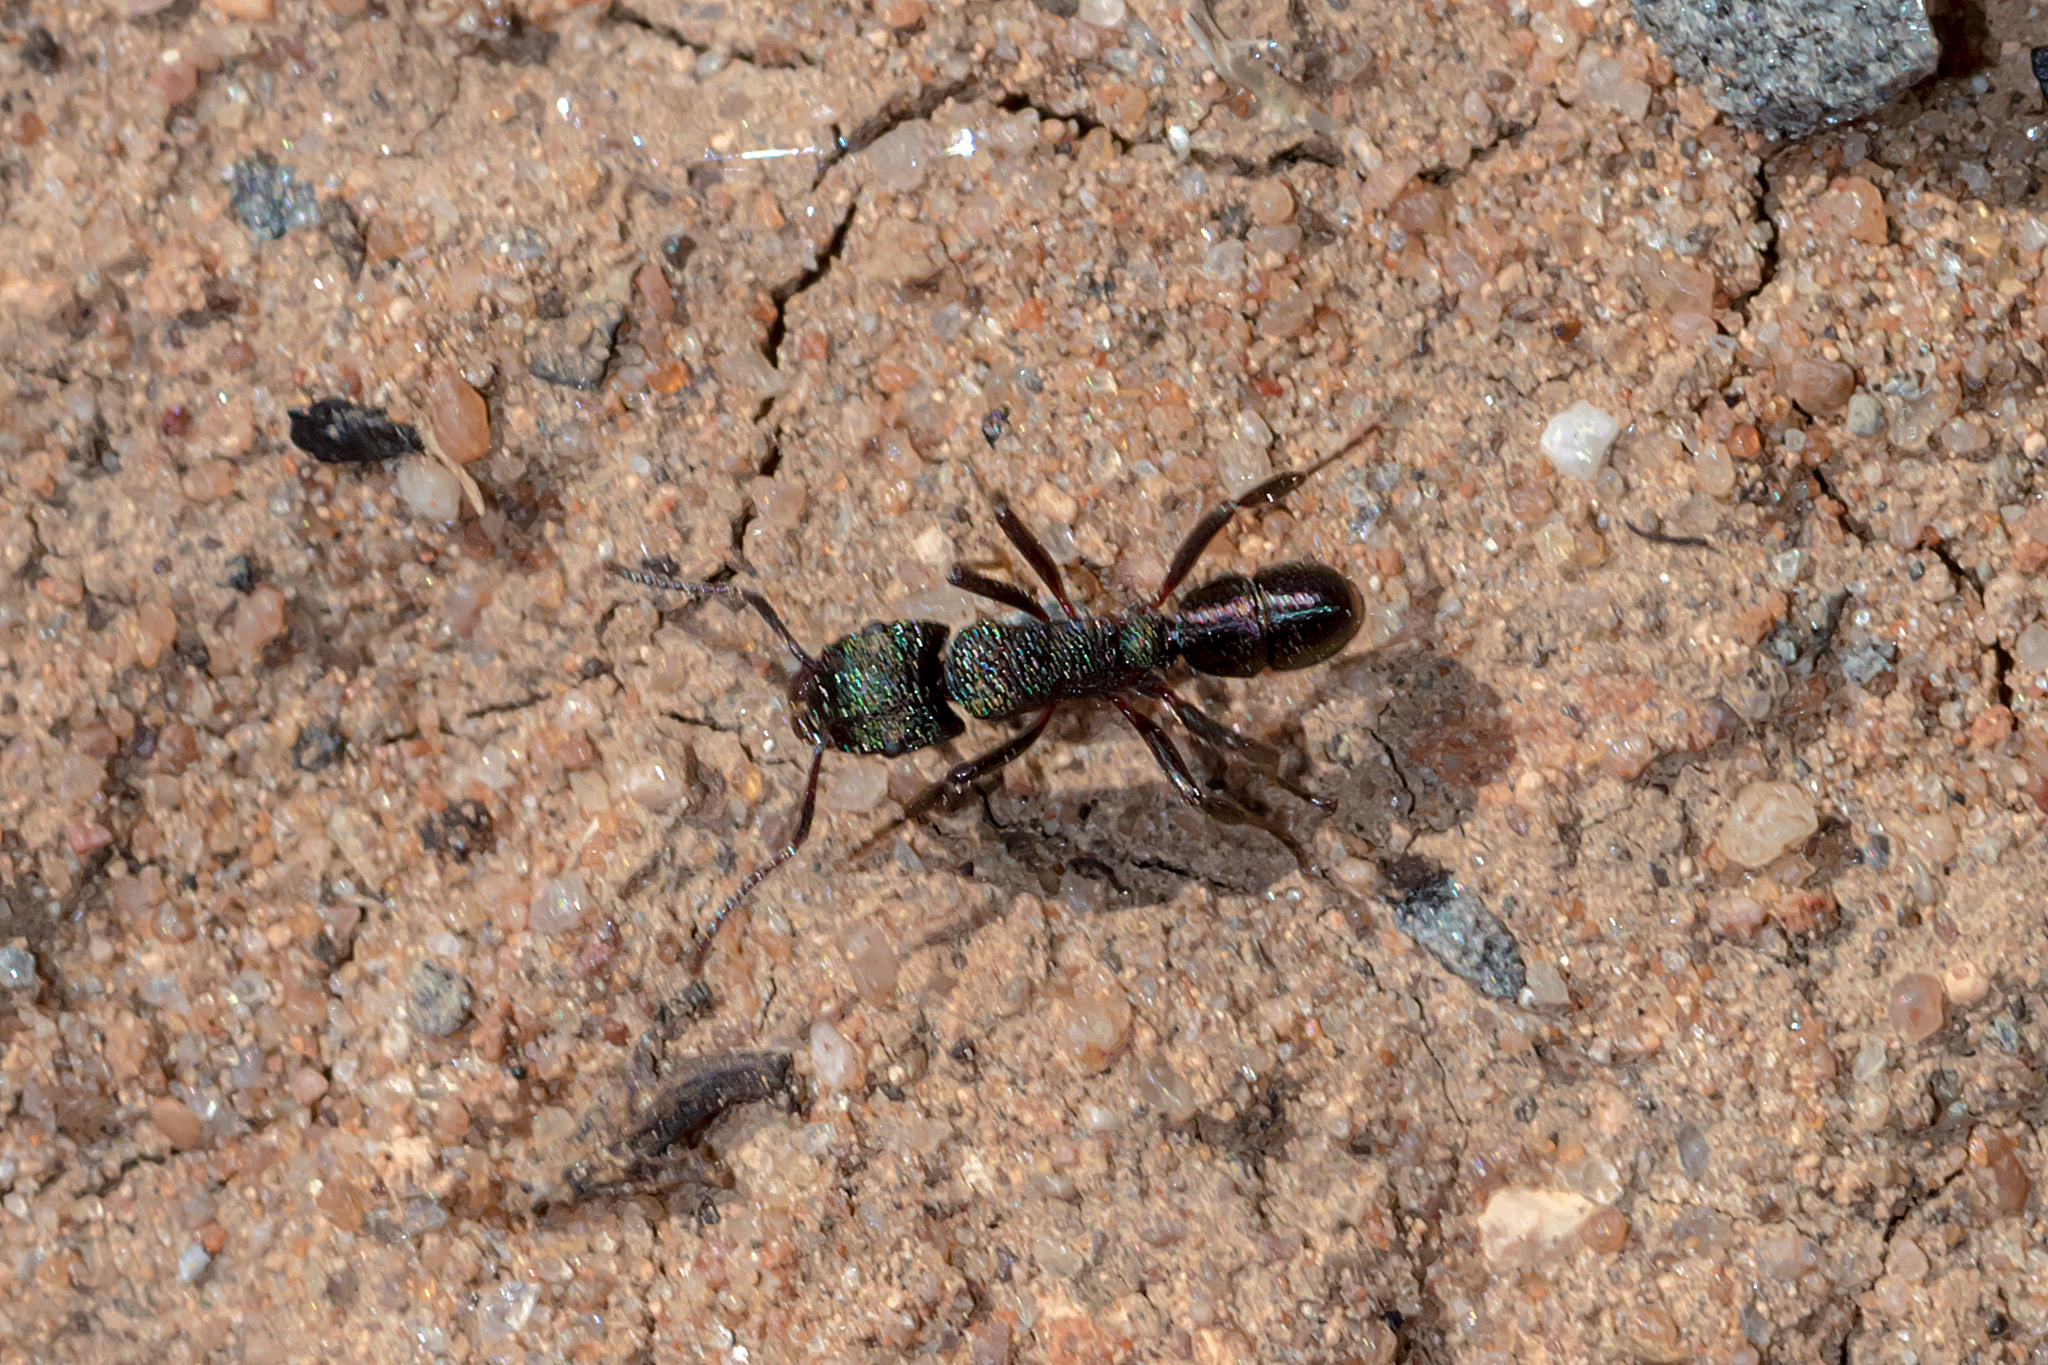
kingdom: Animalia
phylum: Arthropoda
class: Insecta
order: Hymenoptera
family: Formicidae
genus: Rhytidoponera
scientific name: Rhytidoponera metallica
